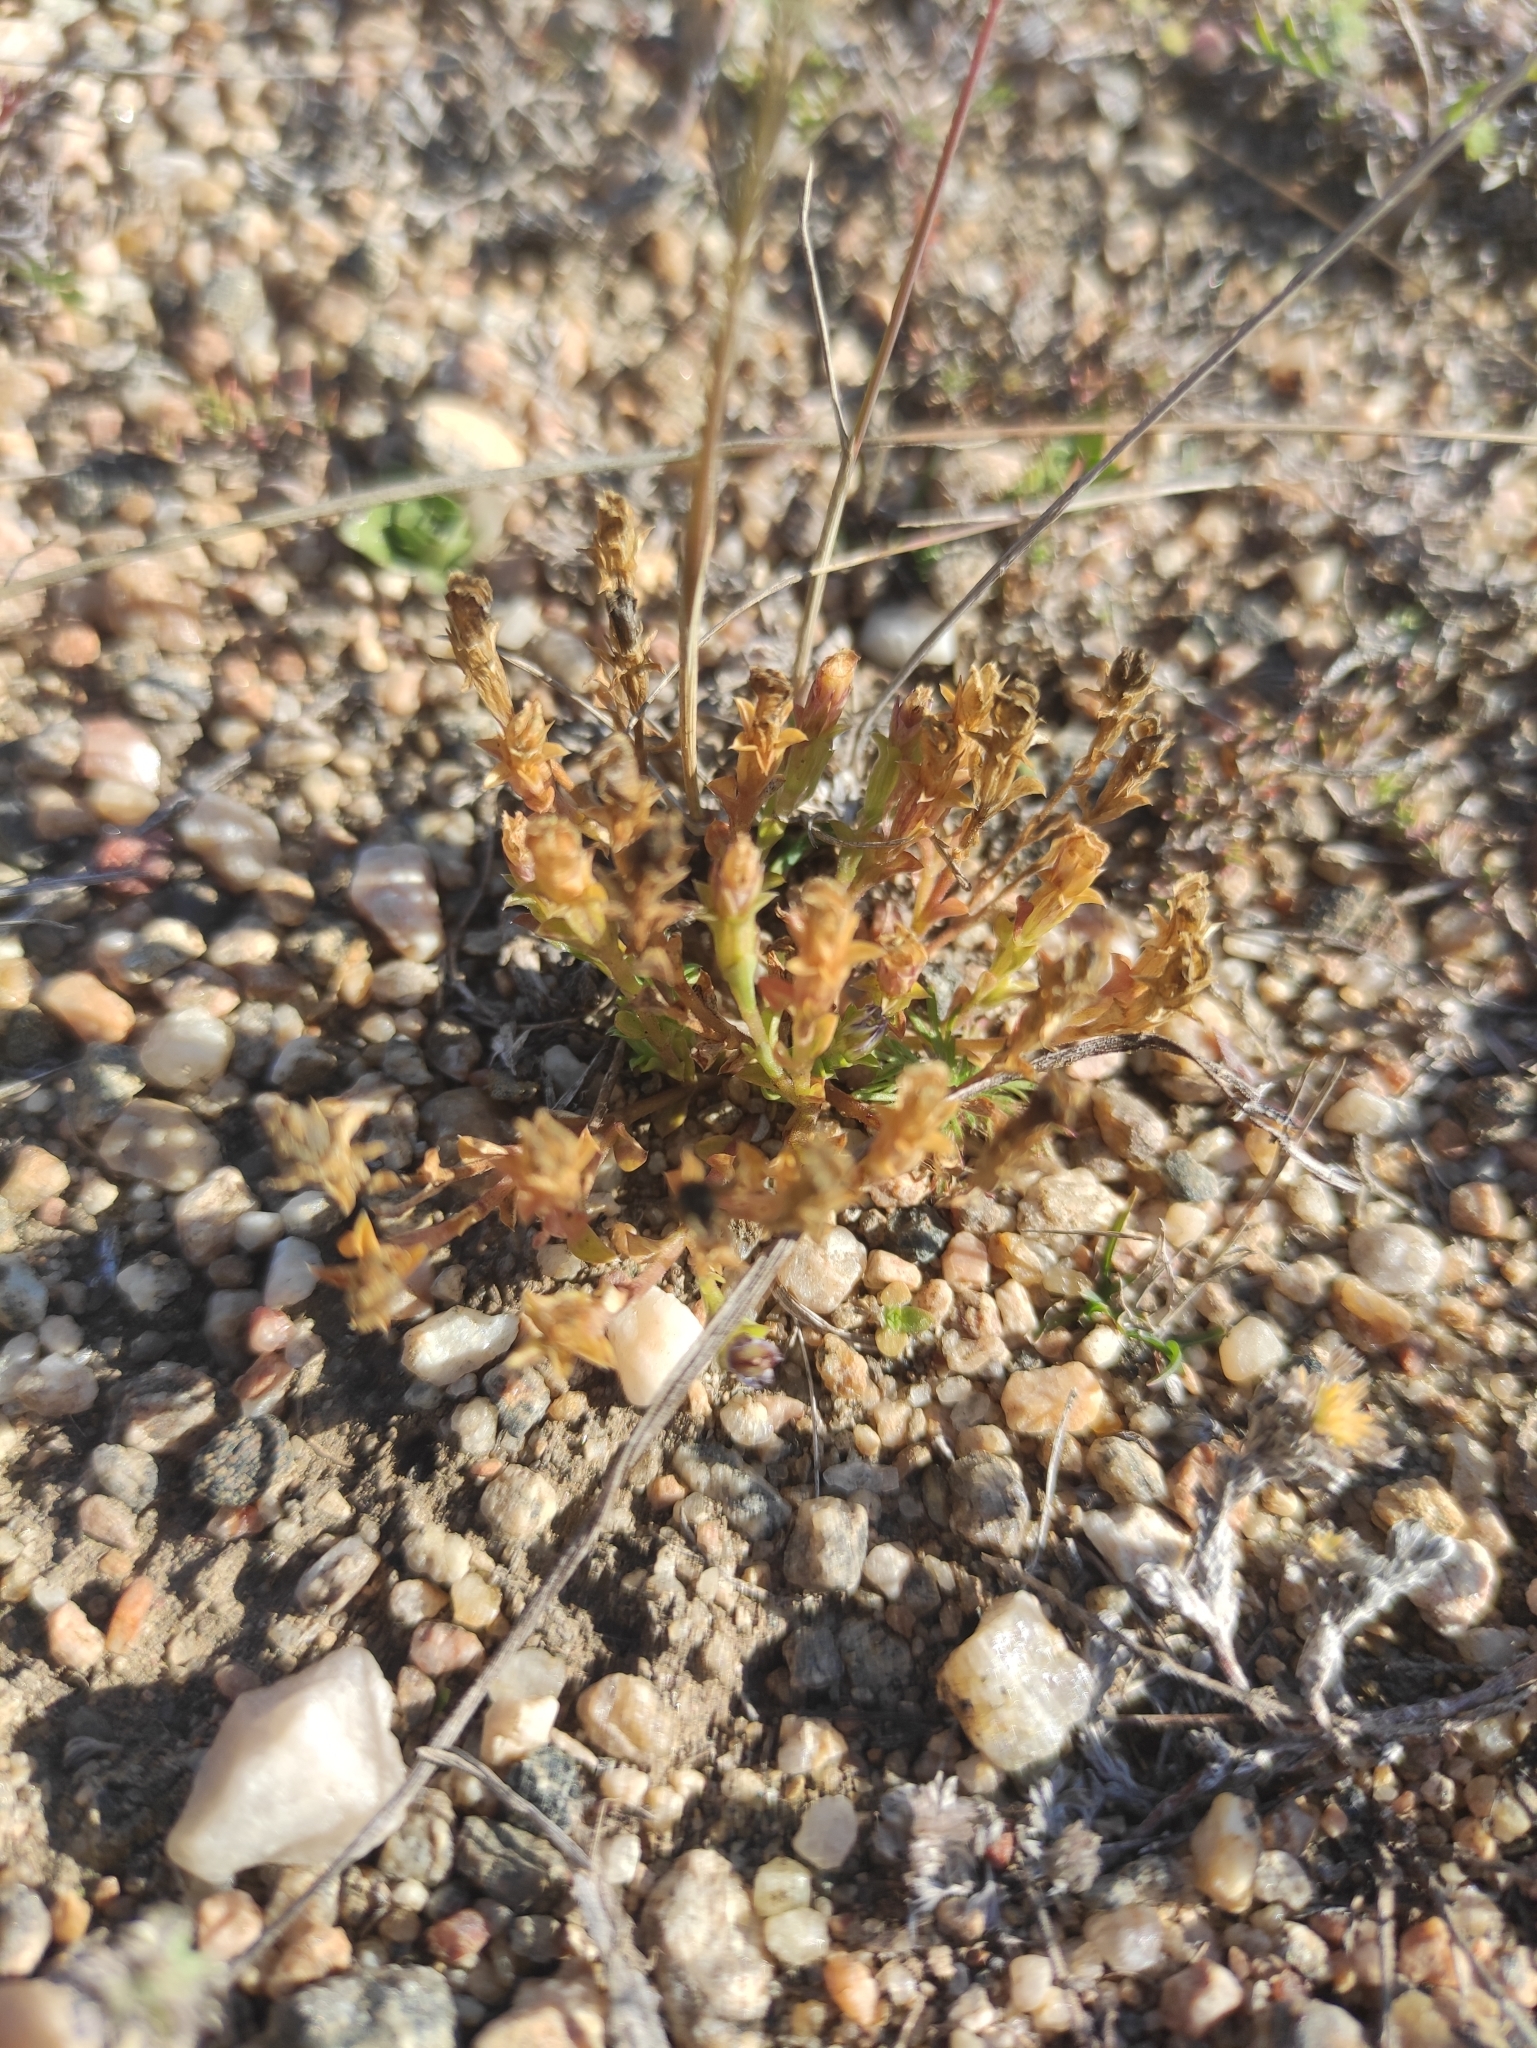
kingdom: Plantae
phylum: Tracheophyta
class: Magnoliopsida
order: Gentianales
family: Gentianaceae
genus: Gentiana
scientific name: Gentiana squarrosa
